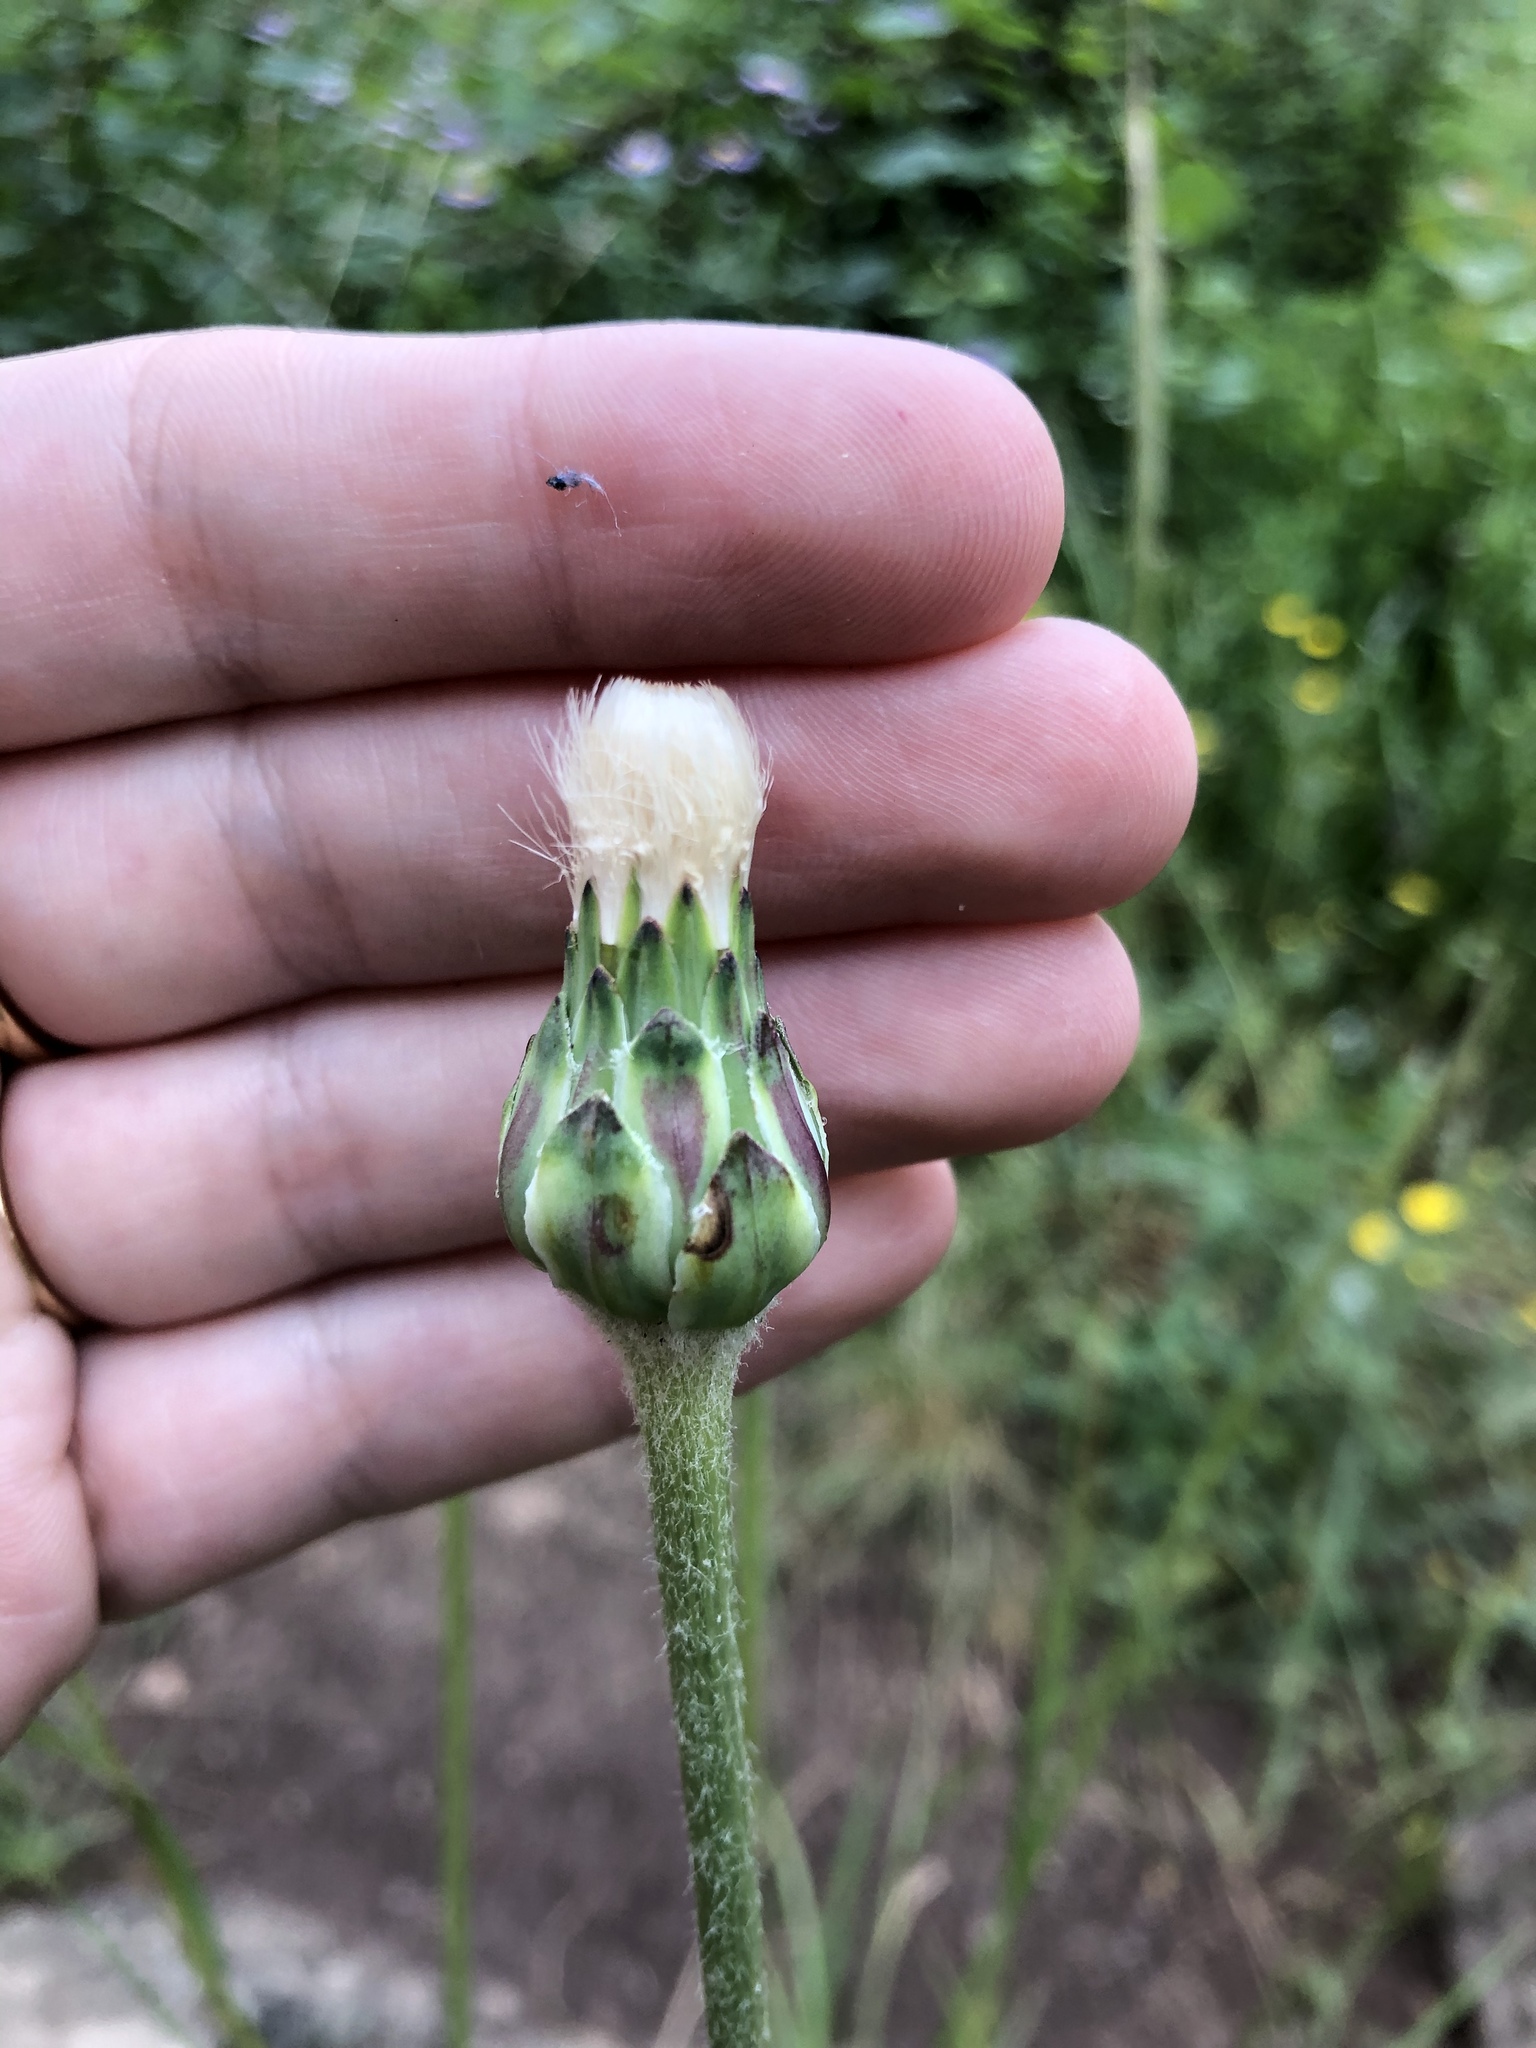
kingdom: Plantae
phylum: Tracheophyta
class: Magnoliopsida
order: Asterales
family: Asteraceae
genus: Agoseris
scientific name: Agoseris aurantiaca
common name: Mountain agoseris
